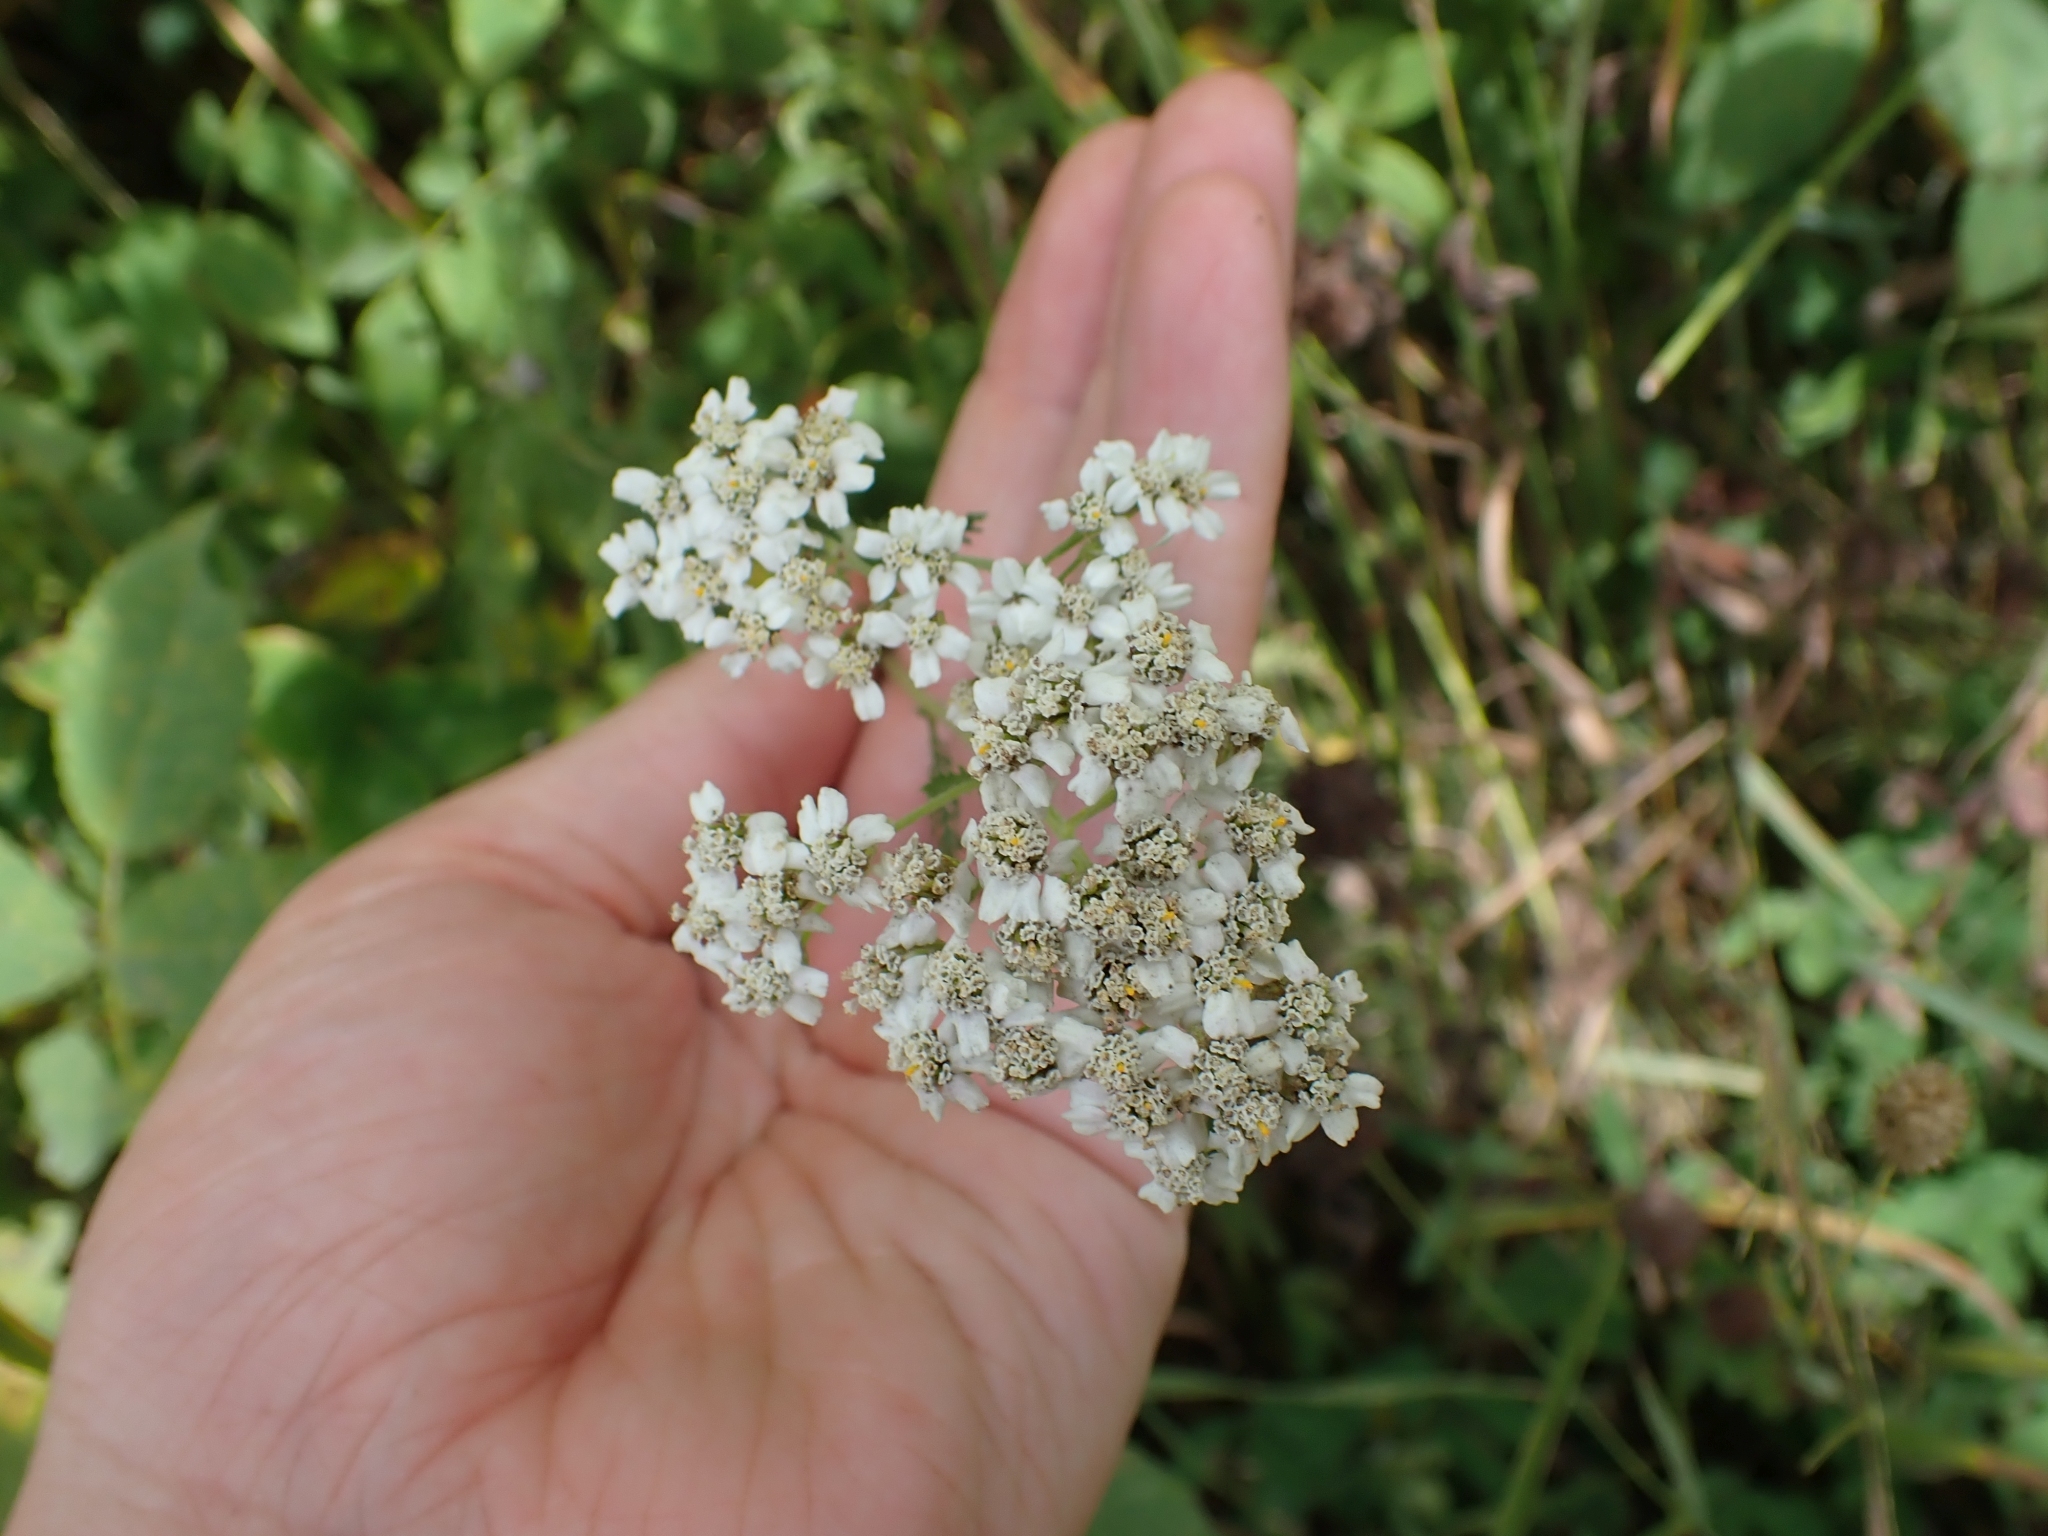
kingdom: Plantae
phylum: Tracheophyta
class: Magnoliopsida
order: Asterales
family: Asteraceae
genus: Achillea
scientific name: Achillea millefolium
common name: Yarrow
